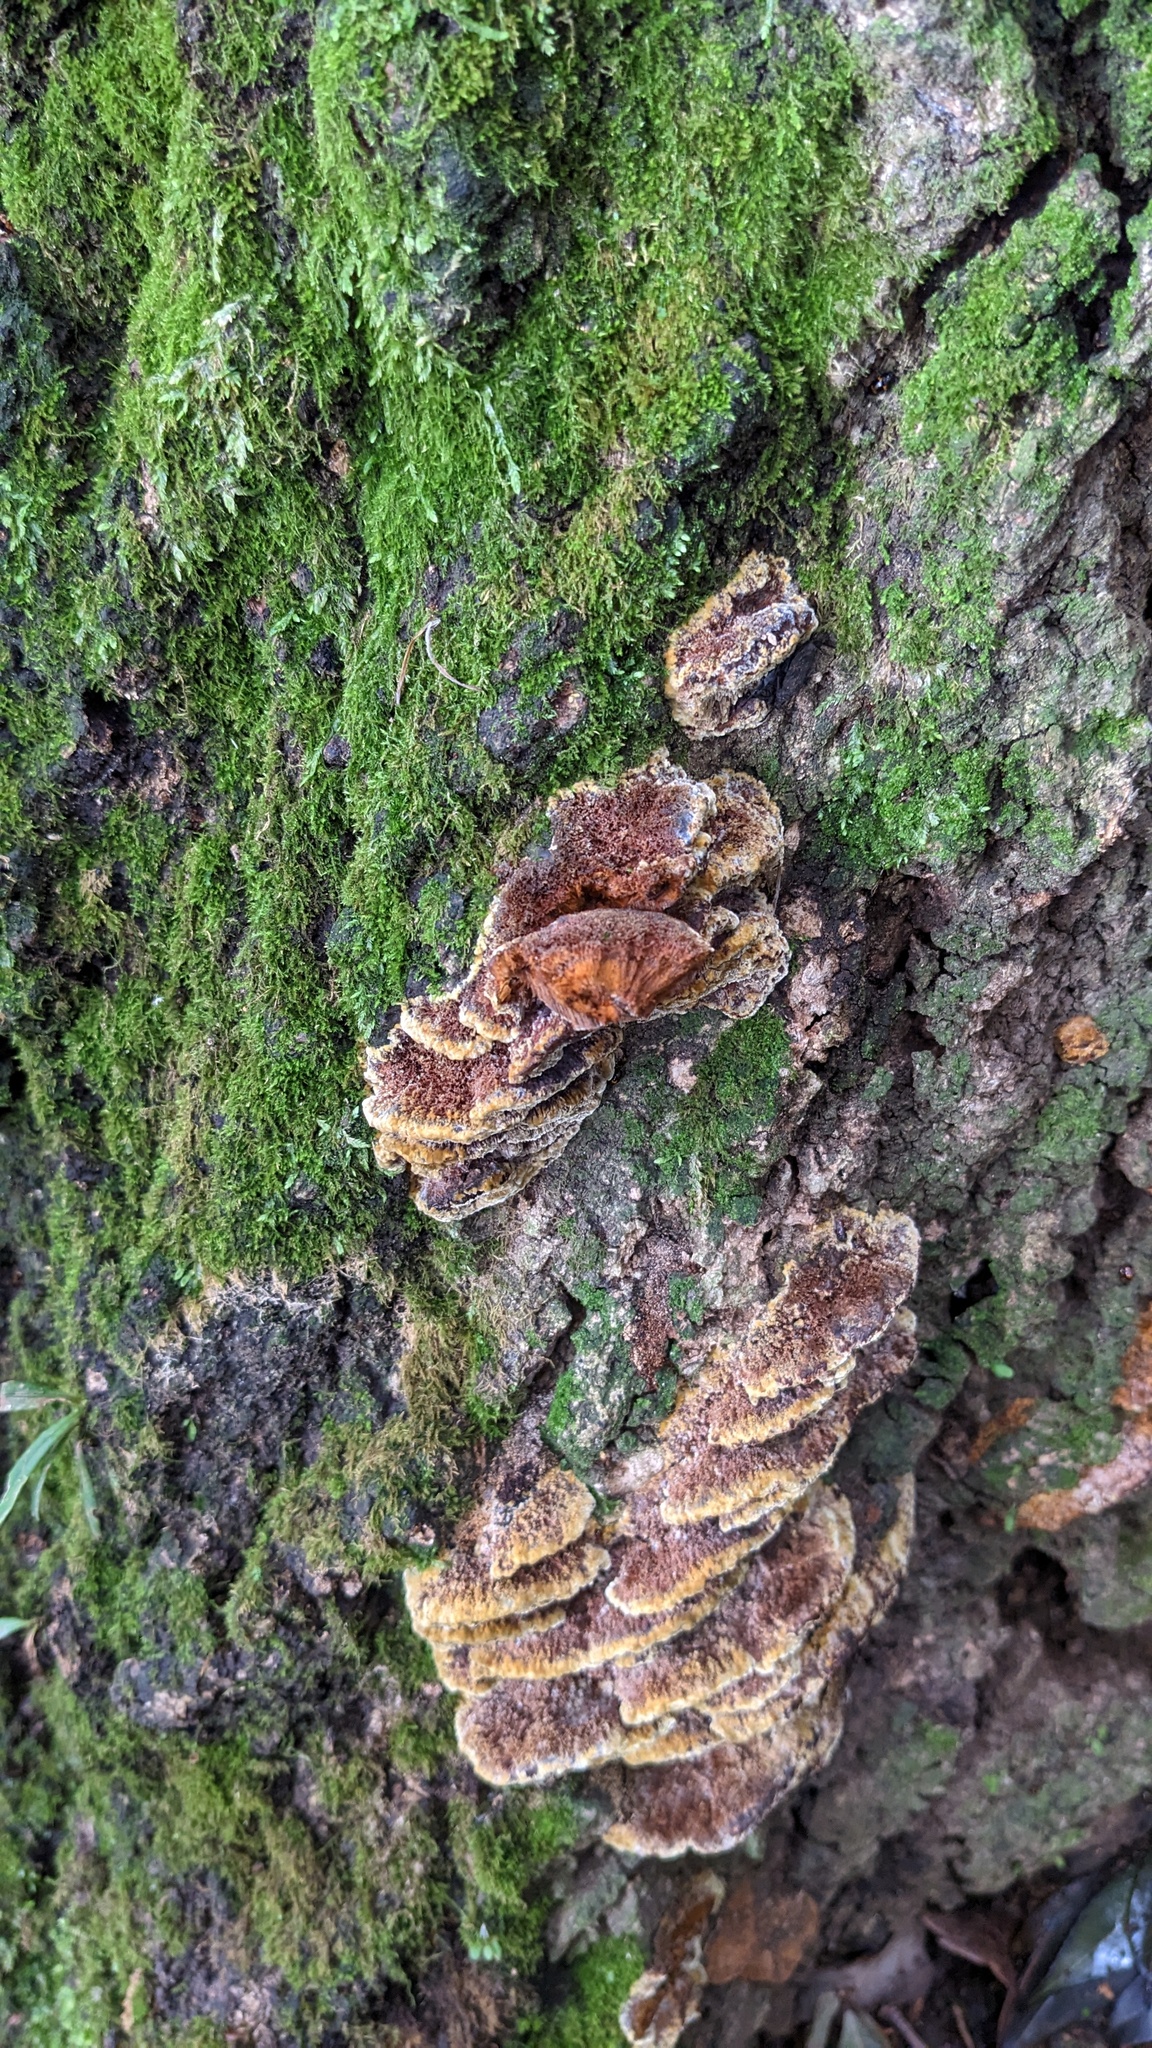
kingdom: Fungi
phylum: Basidiomycota
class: Agaricomycetes
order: Hymenochaetales
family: Hymenochaetaceae
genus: Phellinus
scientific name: Phellinus gilvus
